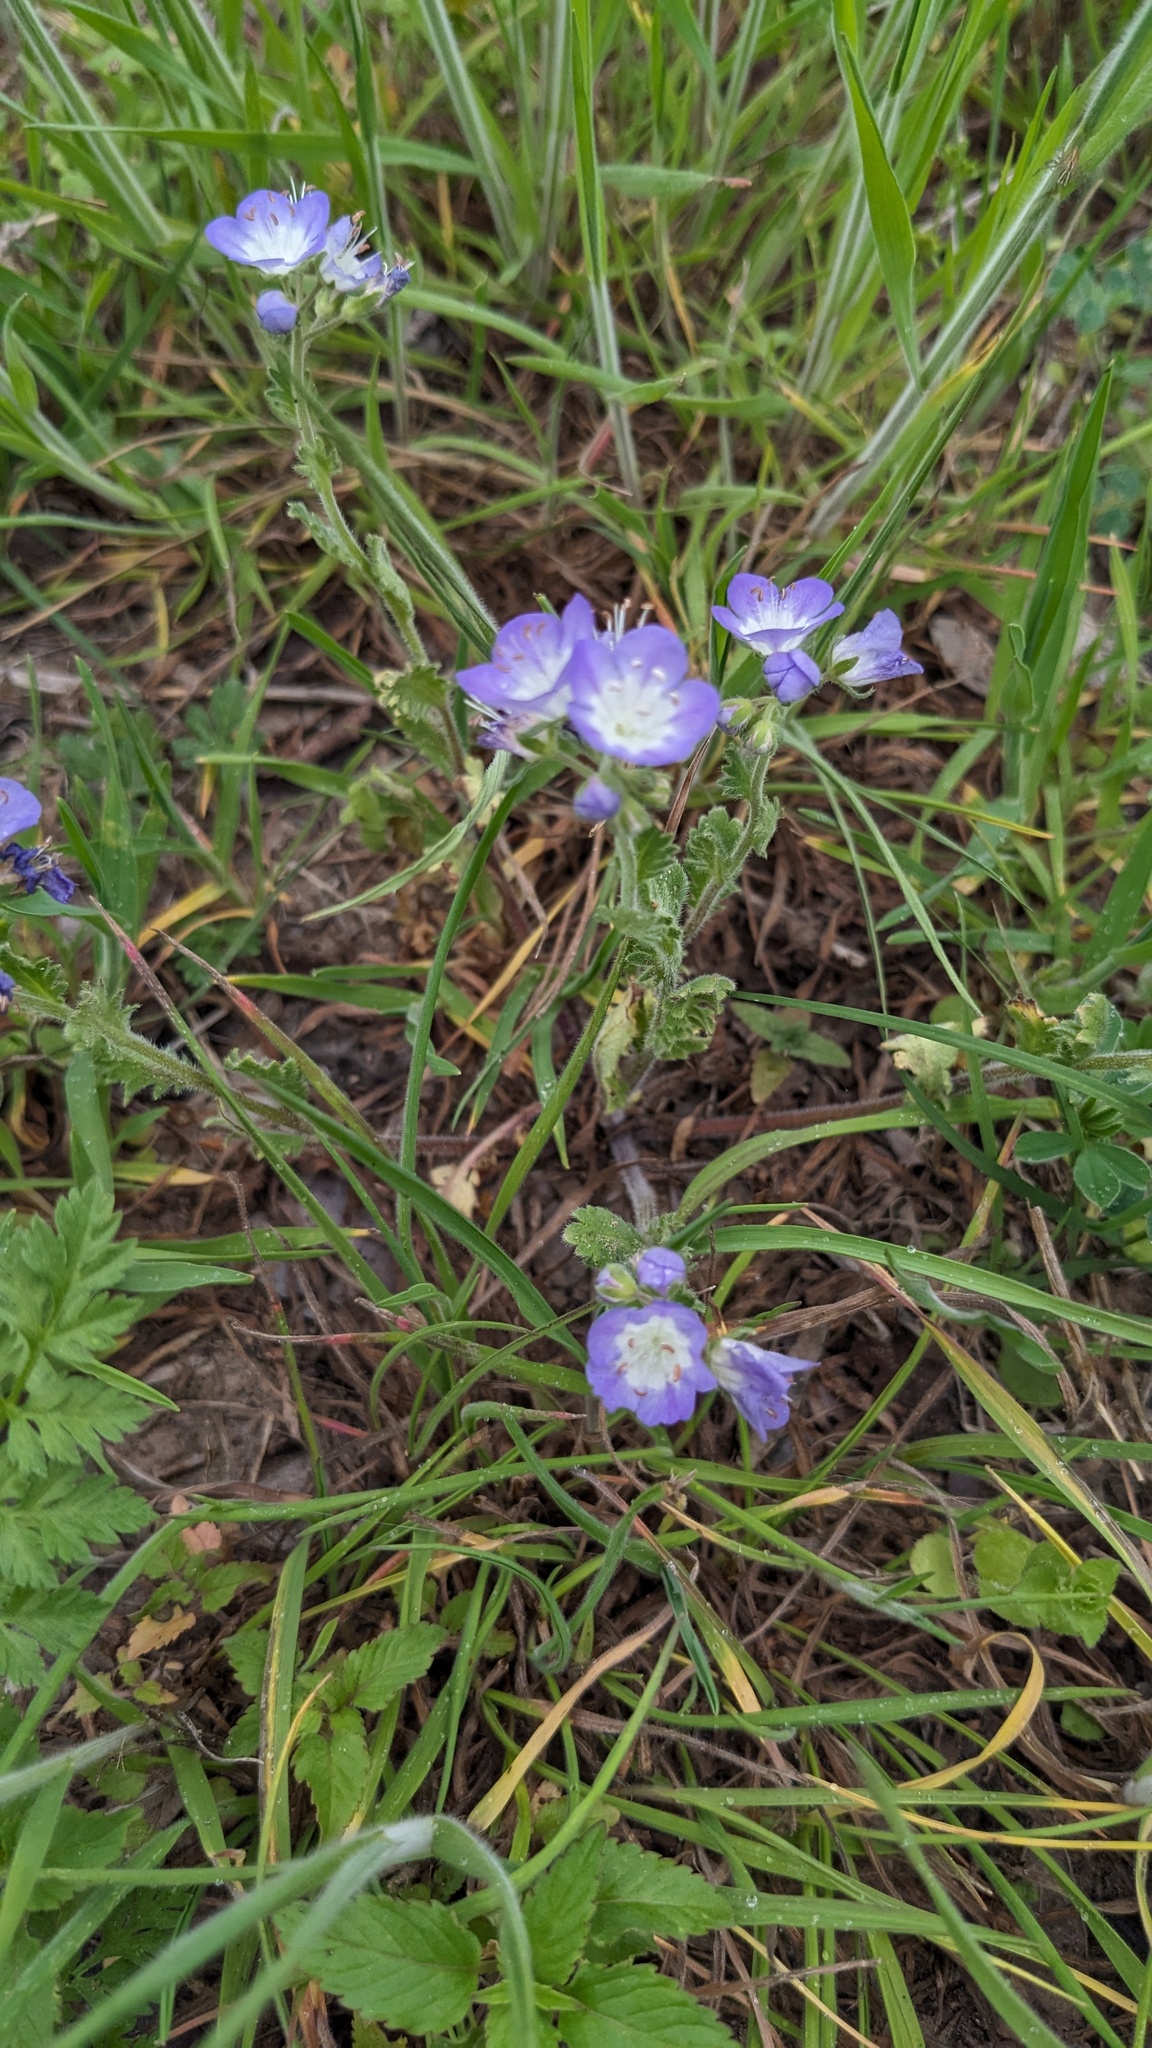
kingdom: Plantae
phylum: Tracheophyta
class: Magnoliopsida
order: Boraginales
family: Hydrophyllaceae
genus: Phacelia
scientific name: Phacelia patuliflora
